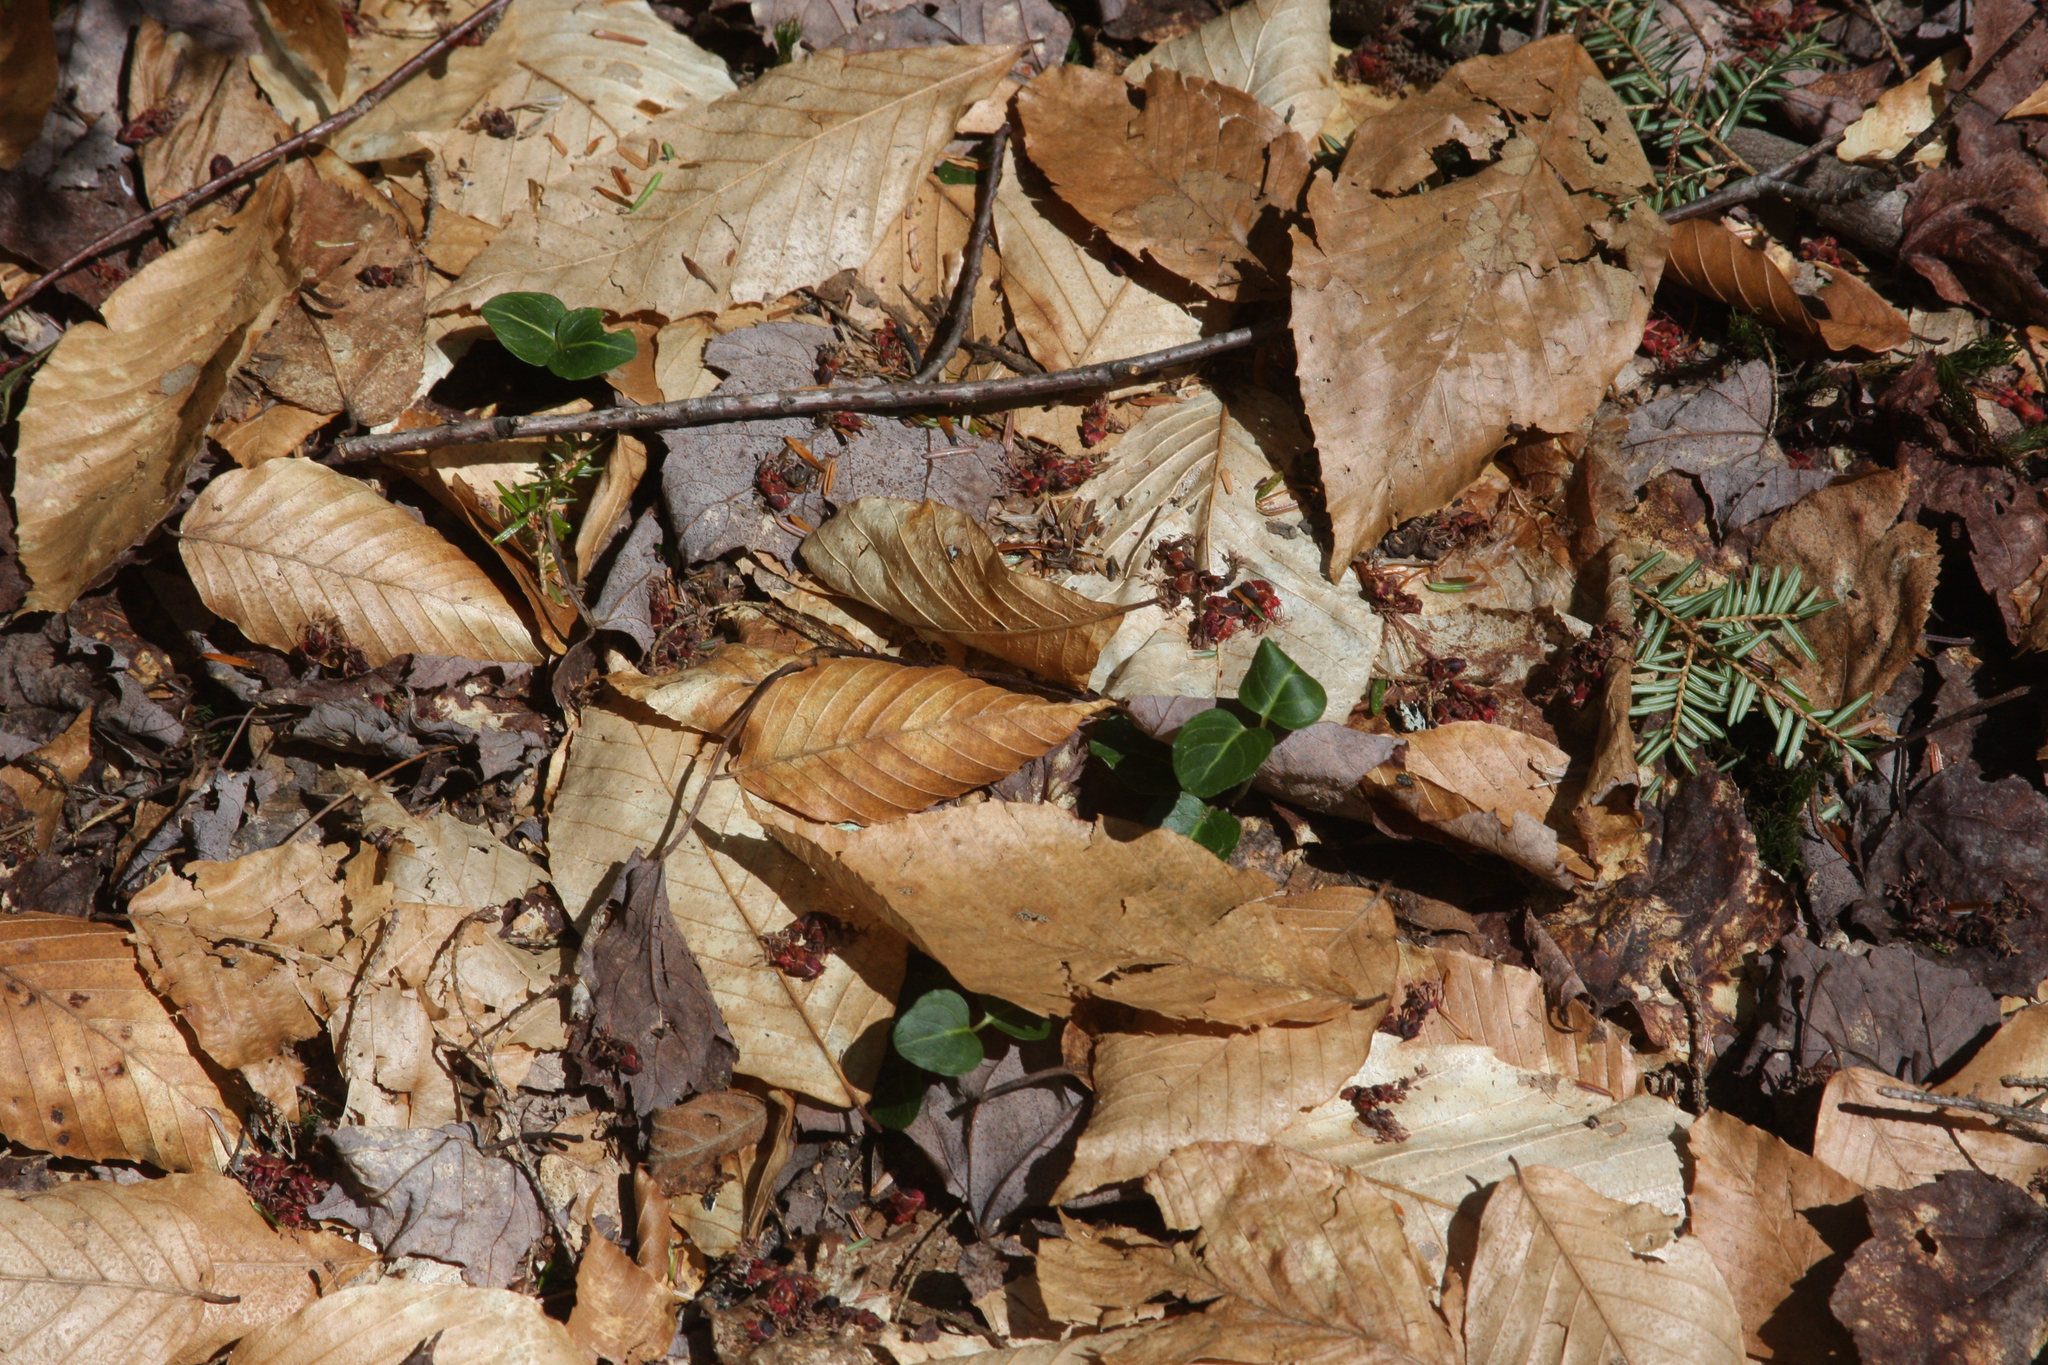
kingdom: Plantae
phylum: Tracheophyta
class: Magnoliopsida
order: Gentianales
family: Rubiaceae
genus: Mitchella
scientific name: Mitchella repens
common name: Partridge-berry
